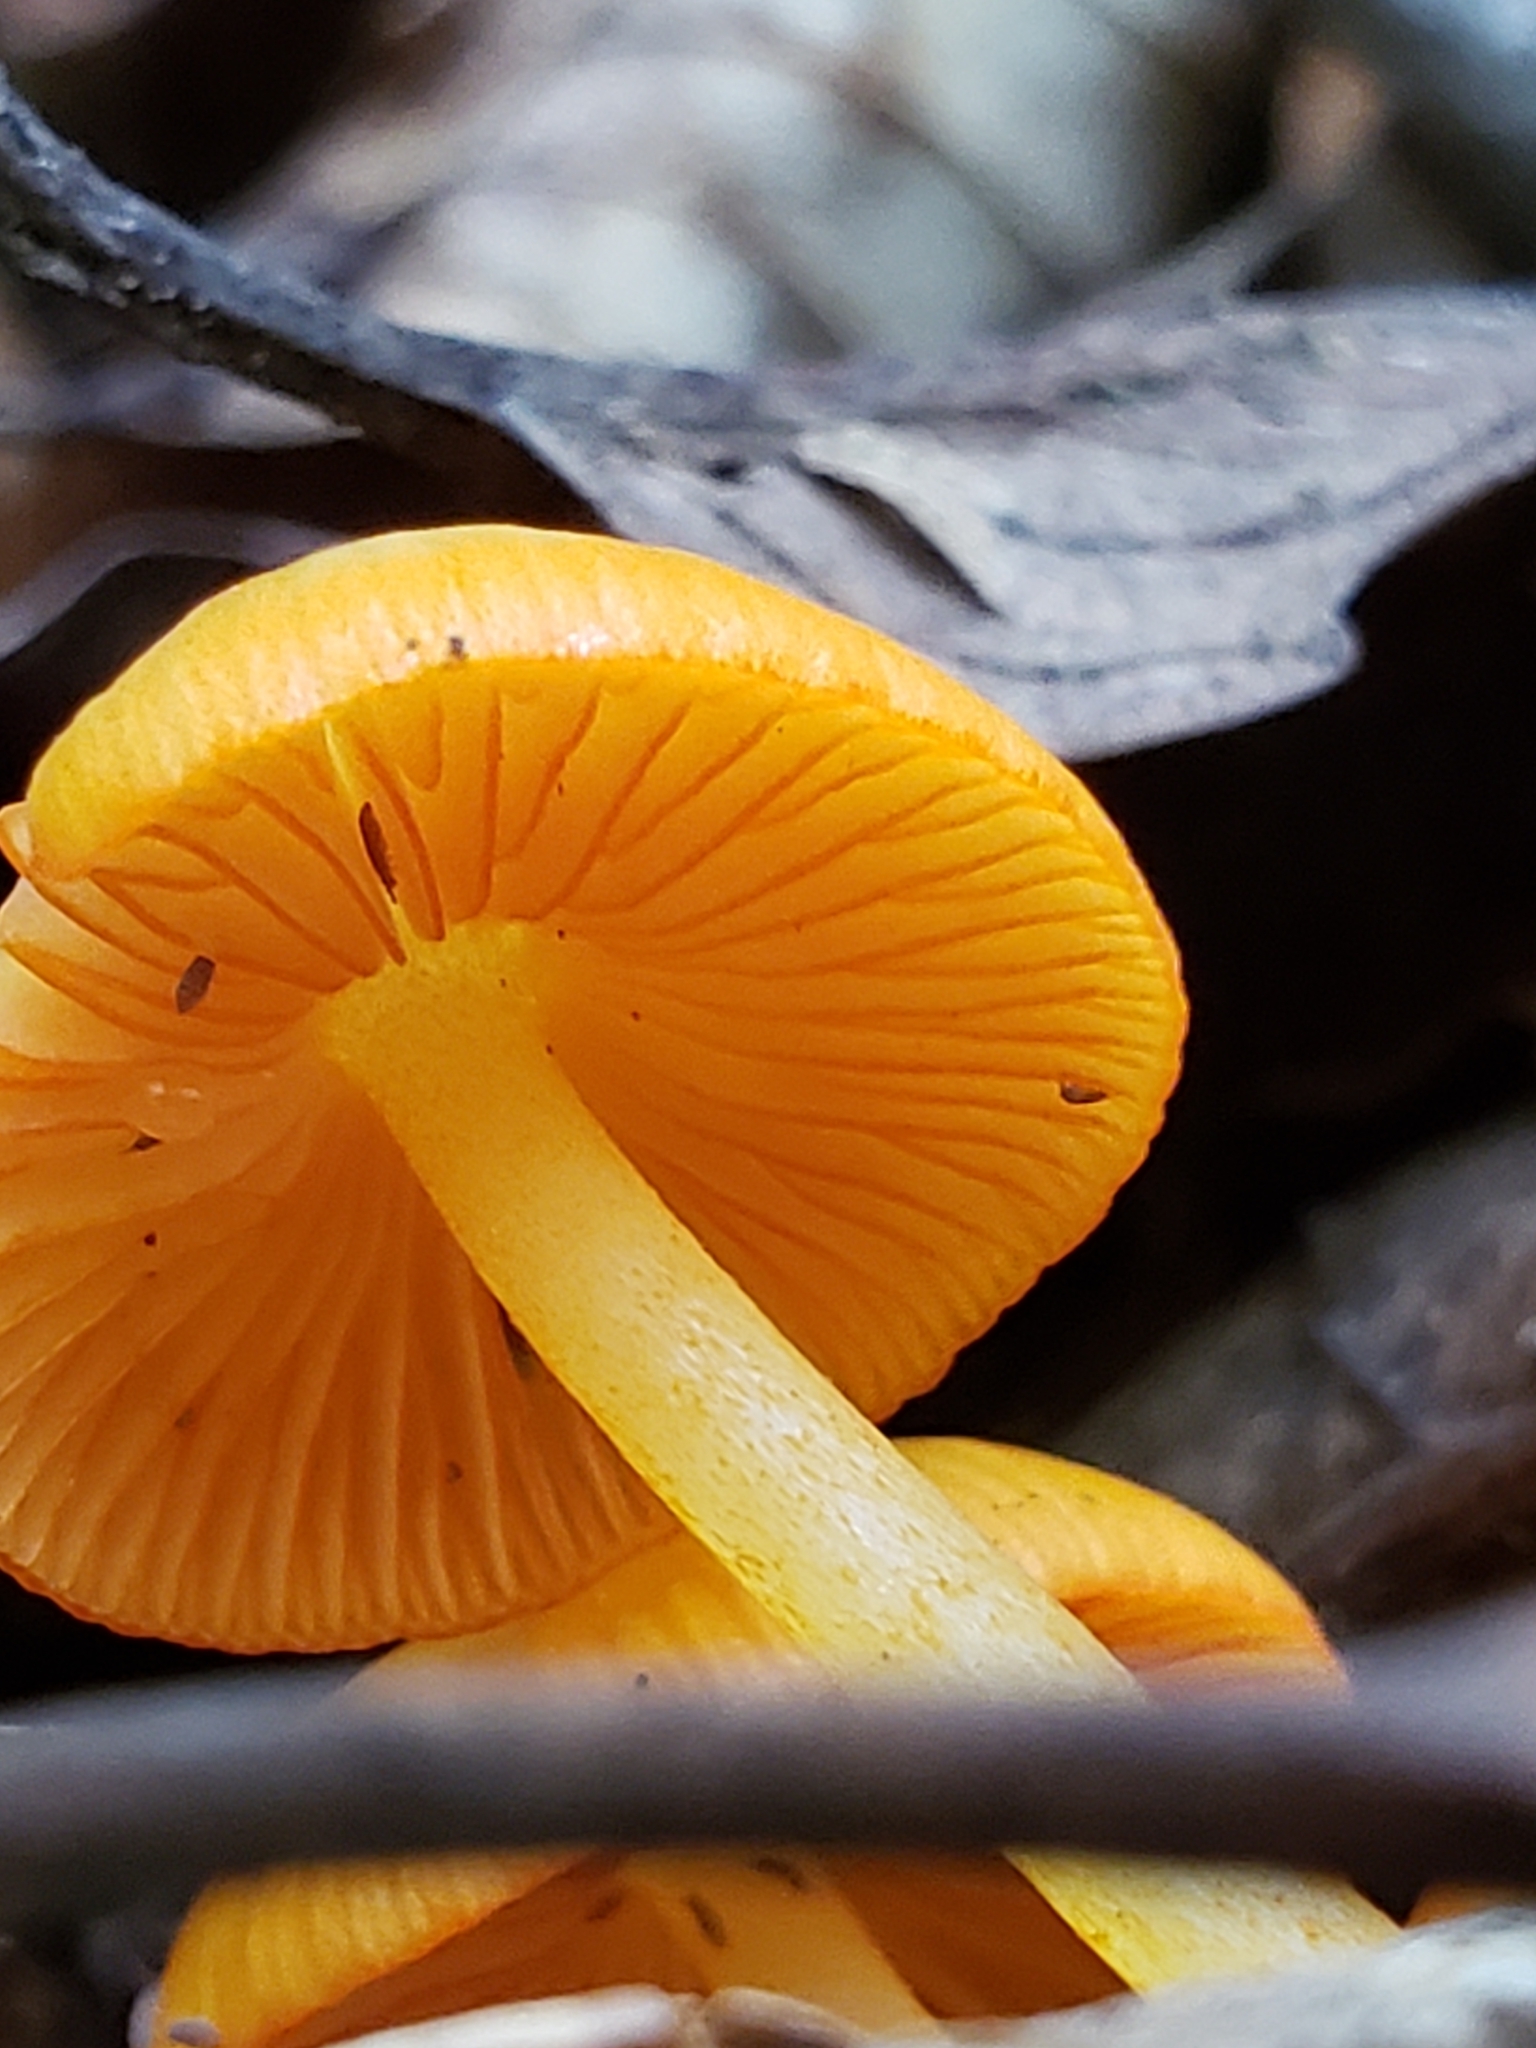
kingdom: Fungi
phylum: Basidiomycota
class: Agaricomycetes
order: Agaricales
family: Mycenaceae
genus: Mycena
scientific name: Mycena leaiana
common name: Orange mycena
